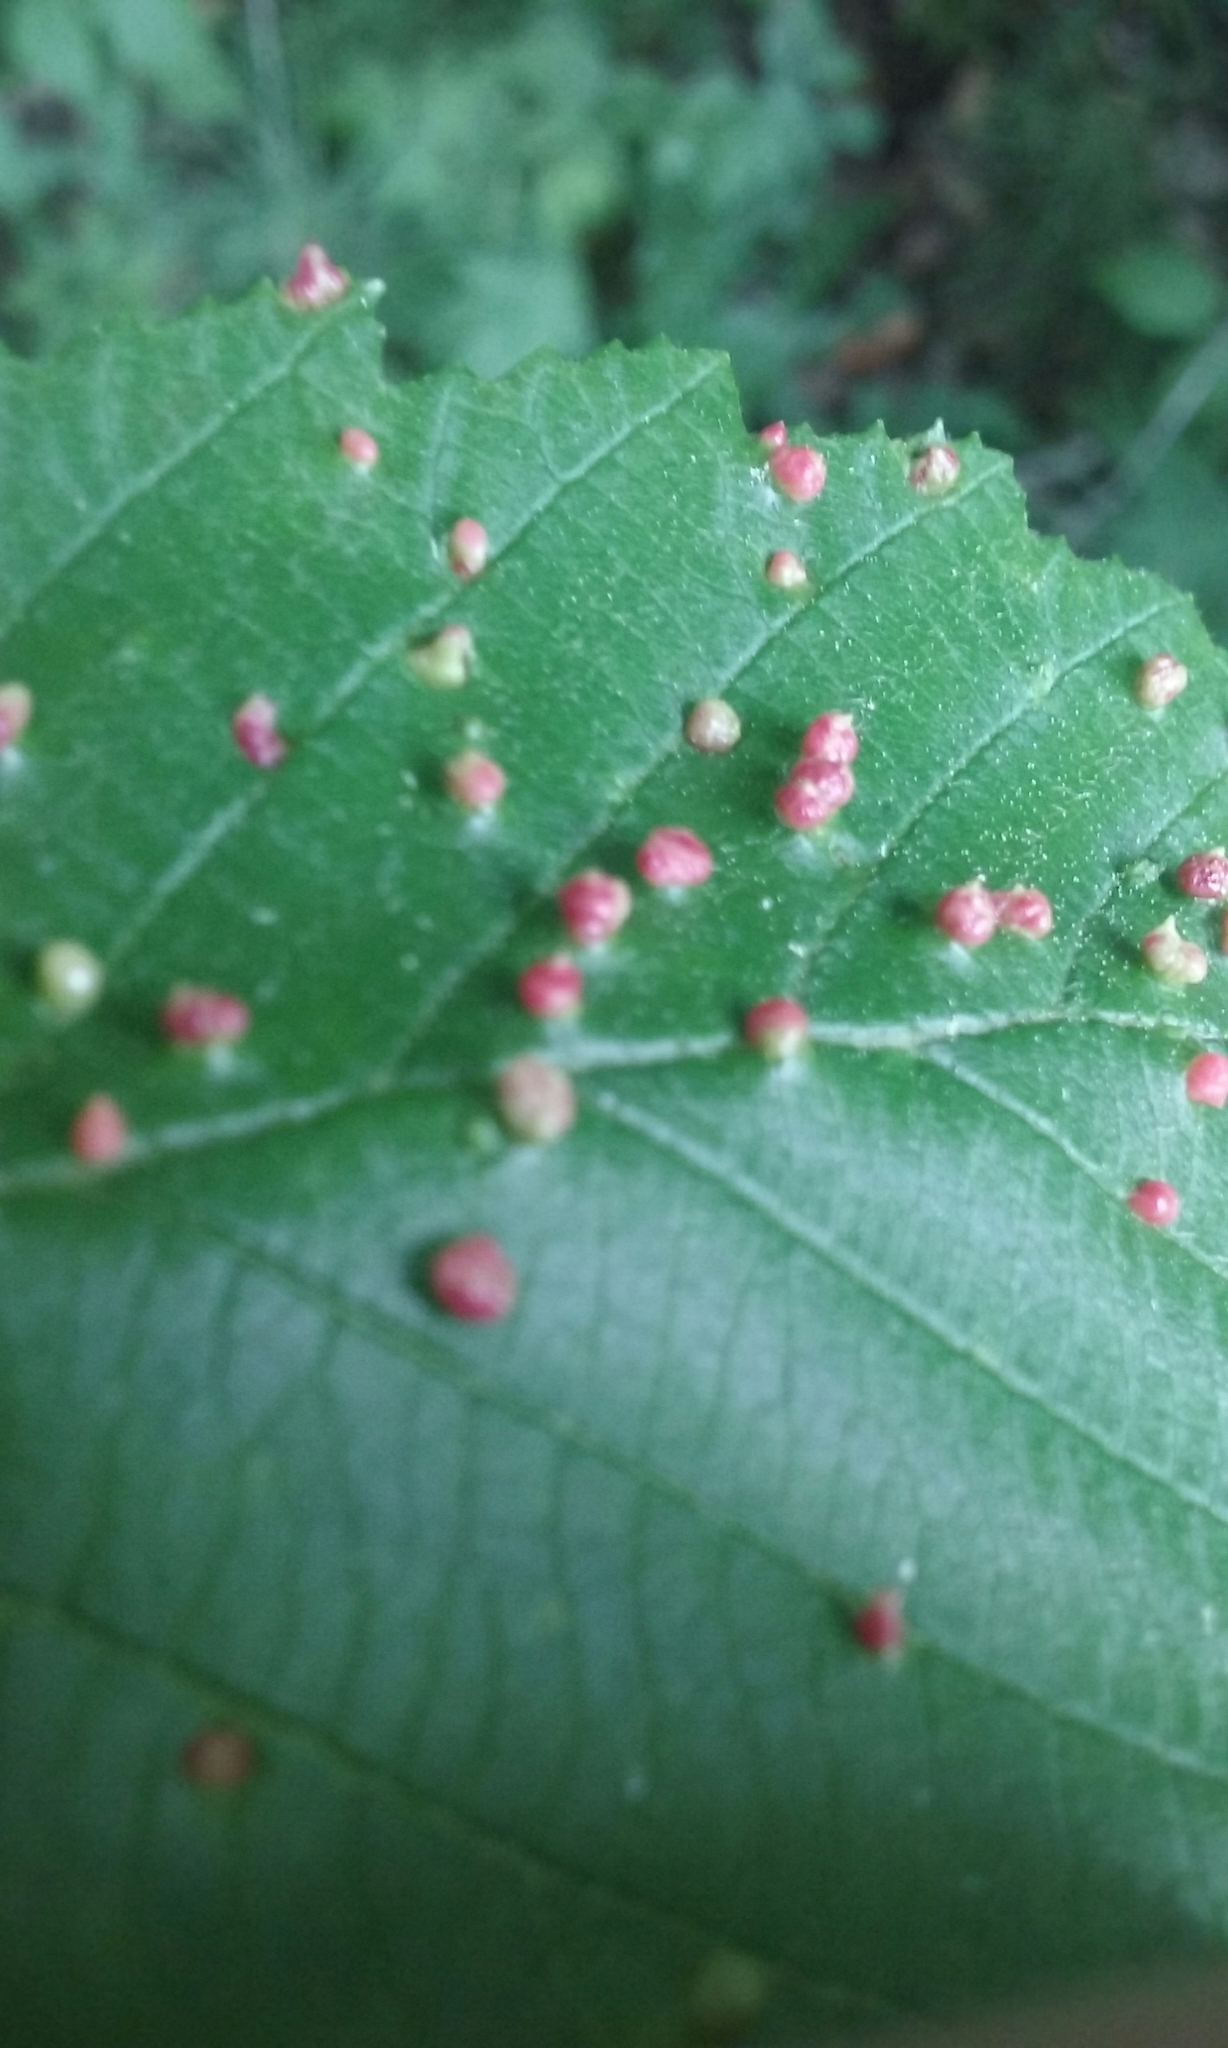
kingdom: Animalia
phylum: Arthropoda
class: Arachnida
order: Trombidiformes
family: Eriophyidae
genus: Eriophyes
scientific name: Eriophyes laevis
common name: Alder leaf gall mite
